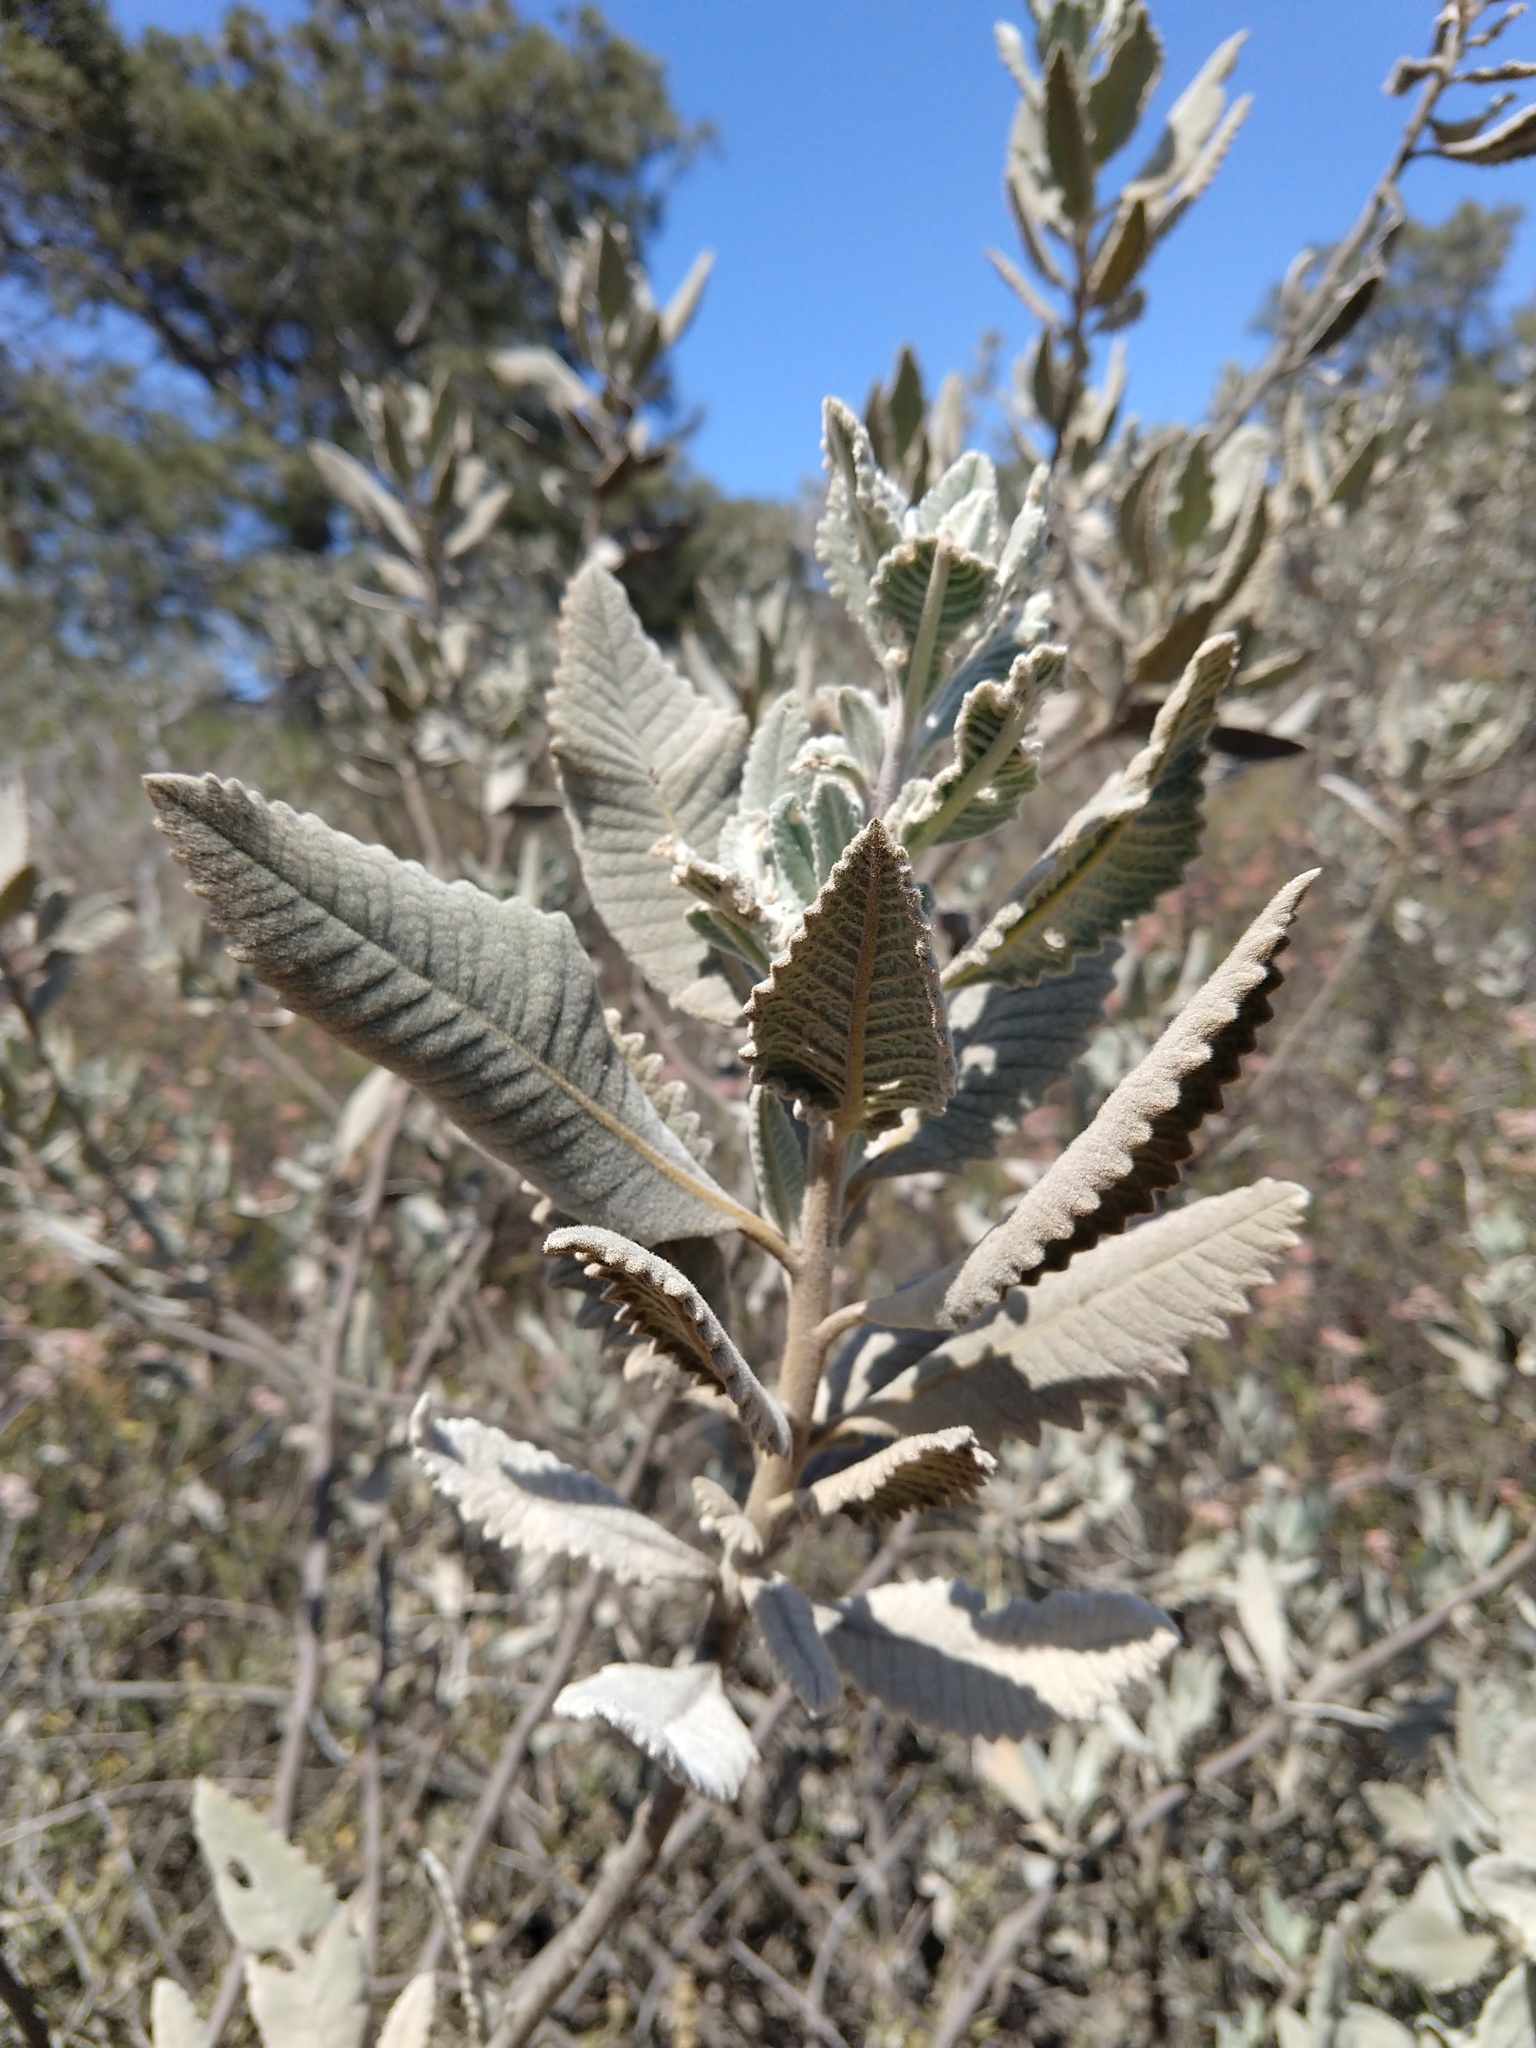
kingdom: Plantae
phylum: Tracheophyta
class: Magnoliopsida
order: Boraginales
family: Namaceae
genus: Eriodictyon
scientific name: Eriodictyon crassifolium
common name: Thick-leaf yerba-santa
